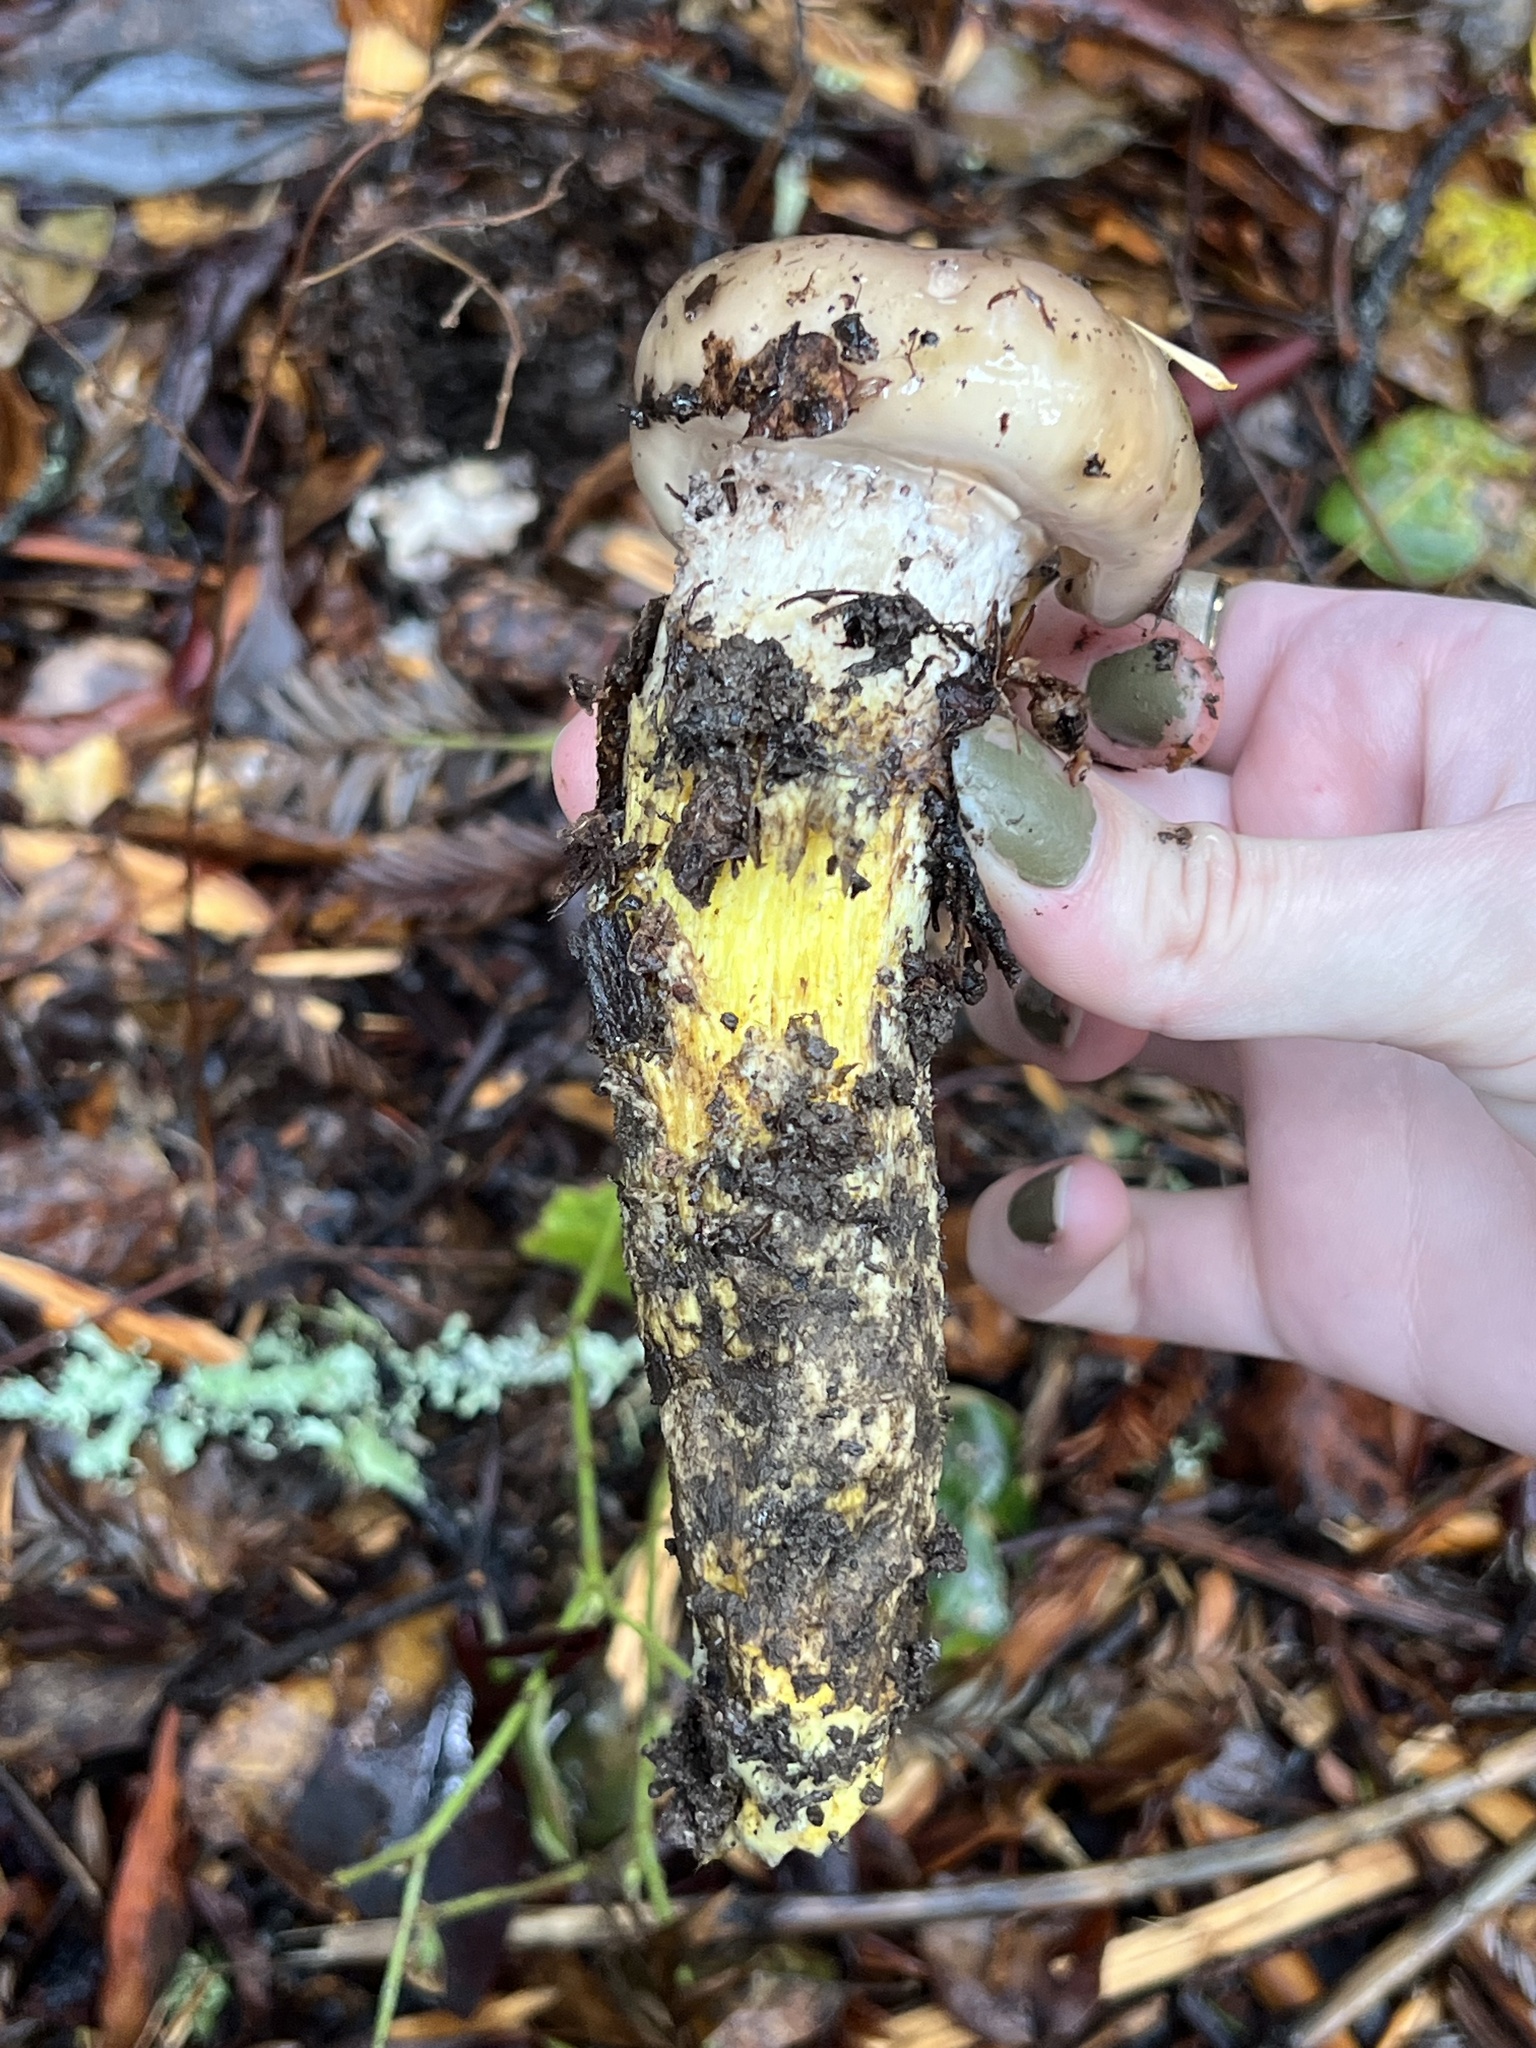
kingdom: Fungi
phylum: Basidiomycota
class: Agaricomycetes
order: Boletales
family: Gomphidiaceae
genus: Gomphidius
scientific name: Gomphidius oregonensis
